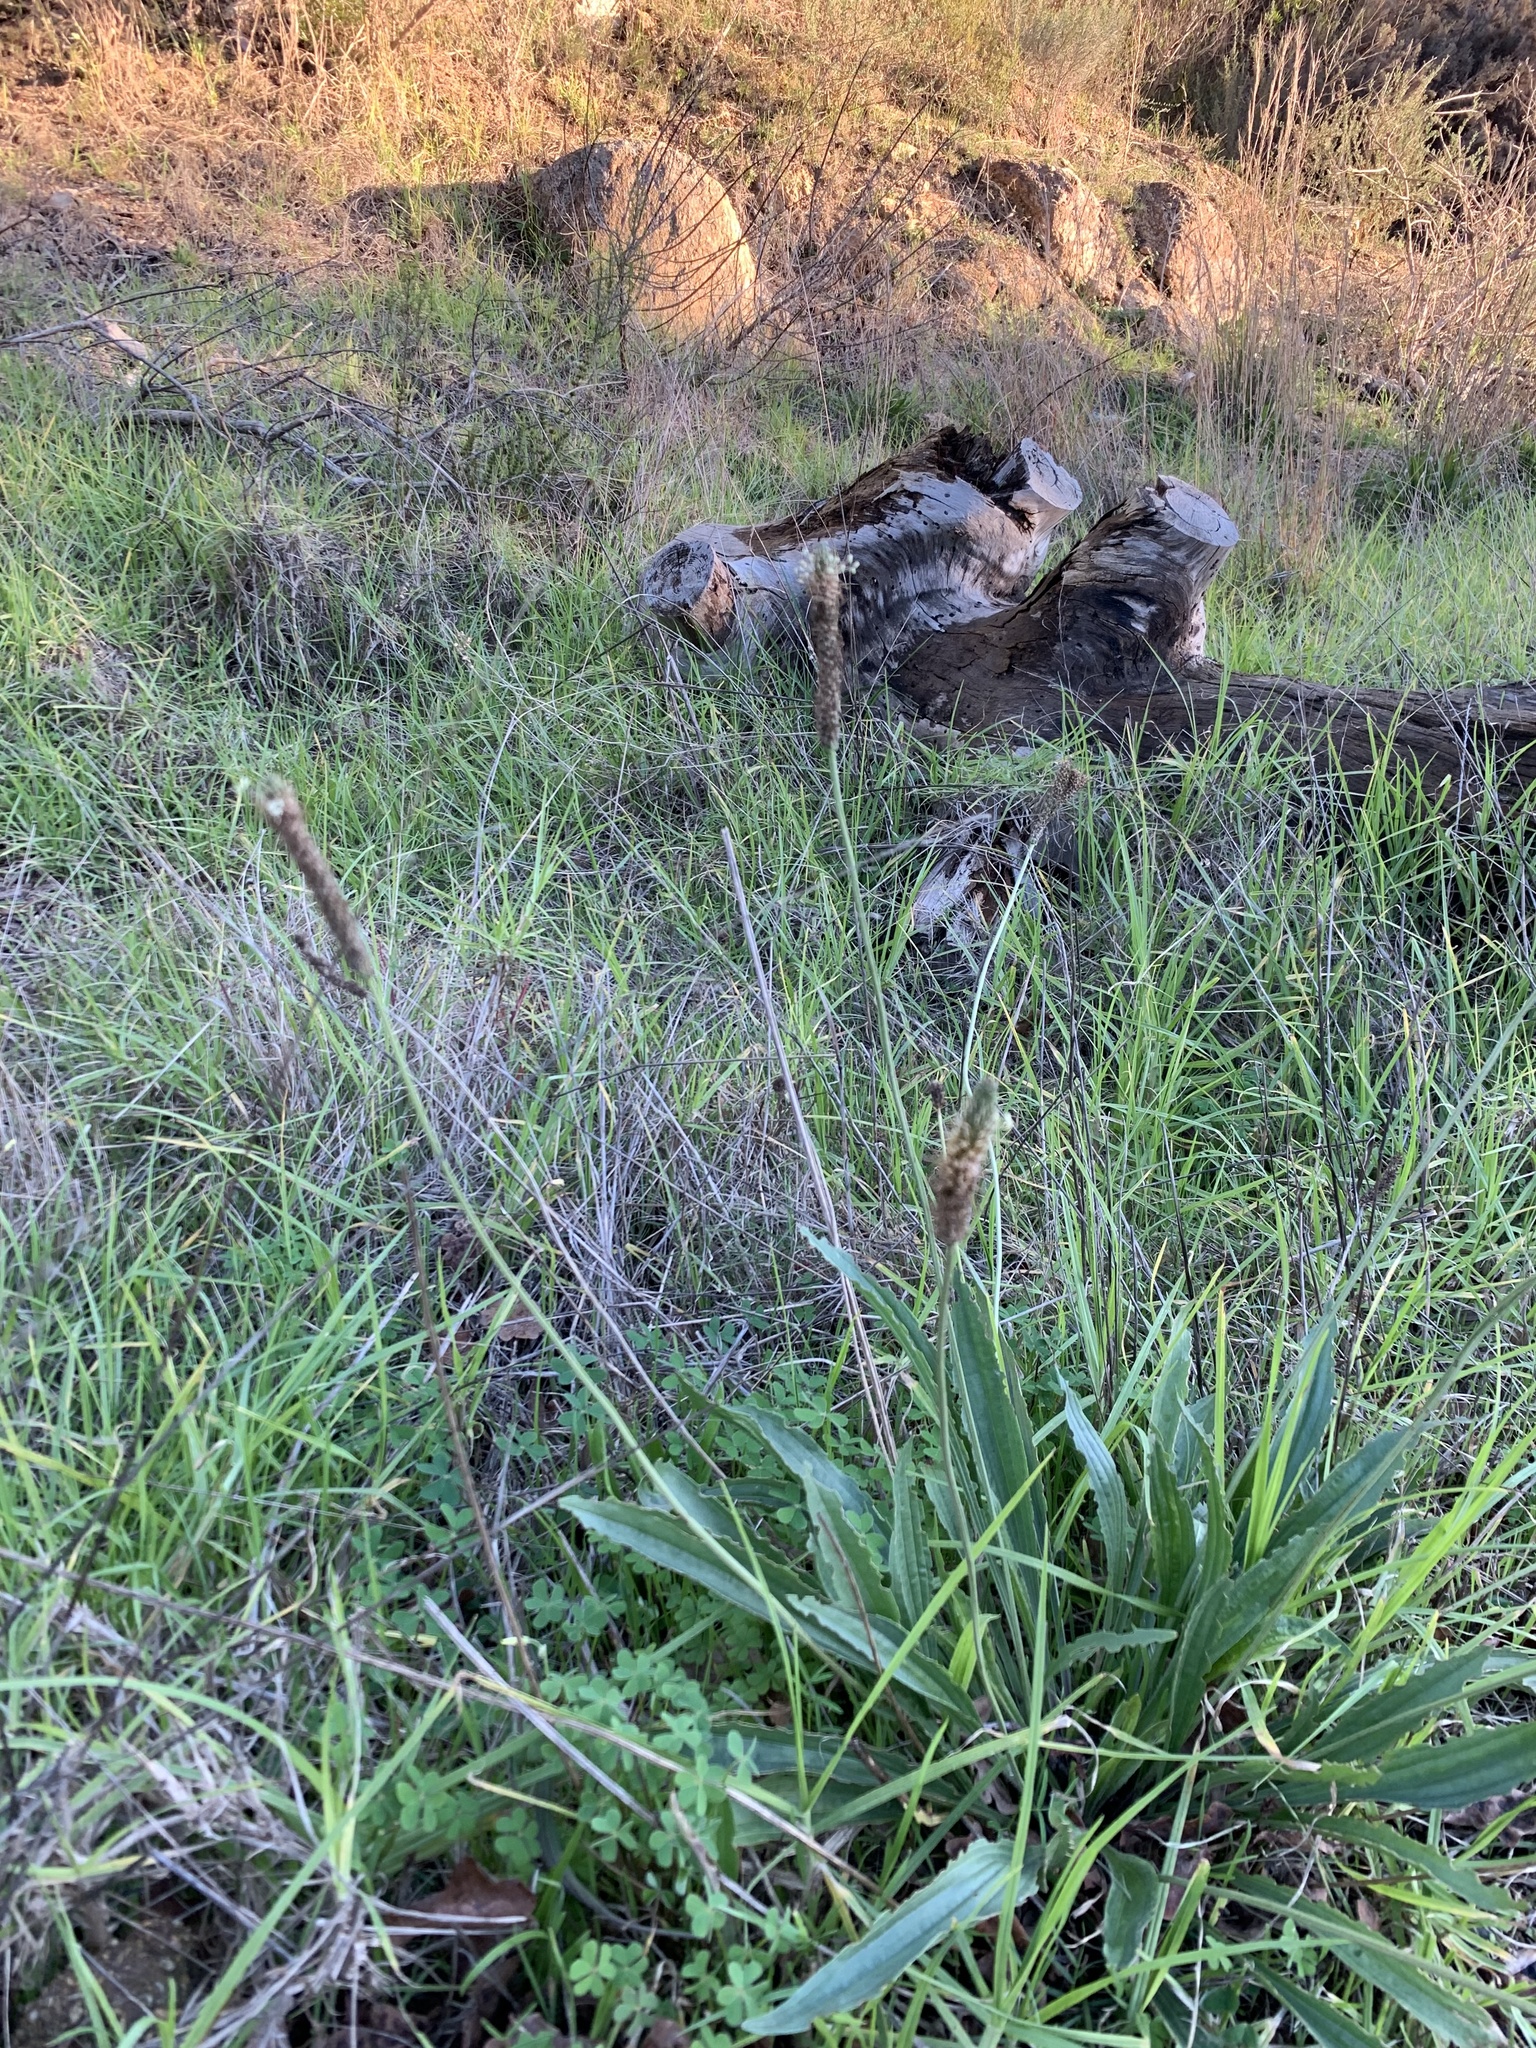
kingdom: Plantae
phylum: Tracheophyta
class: Magnoliopsida
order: Lamiales
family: Plantaginaceae
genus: Plantago
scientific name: Plantago lanceolata
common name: Ribwort plantain
